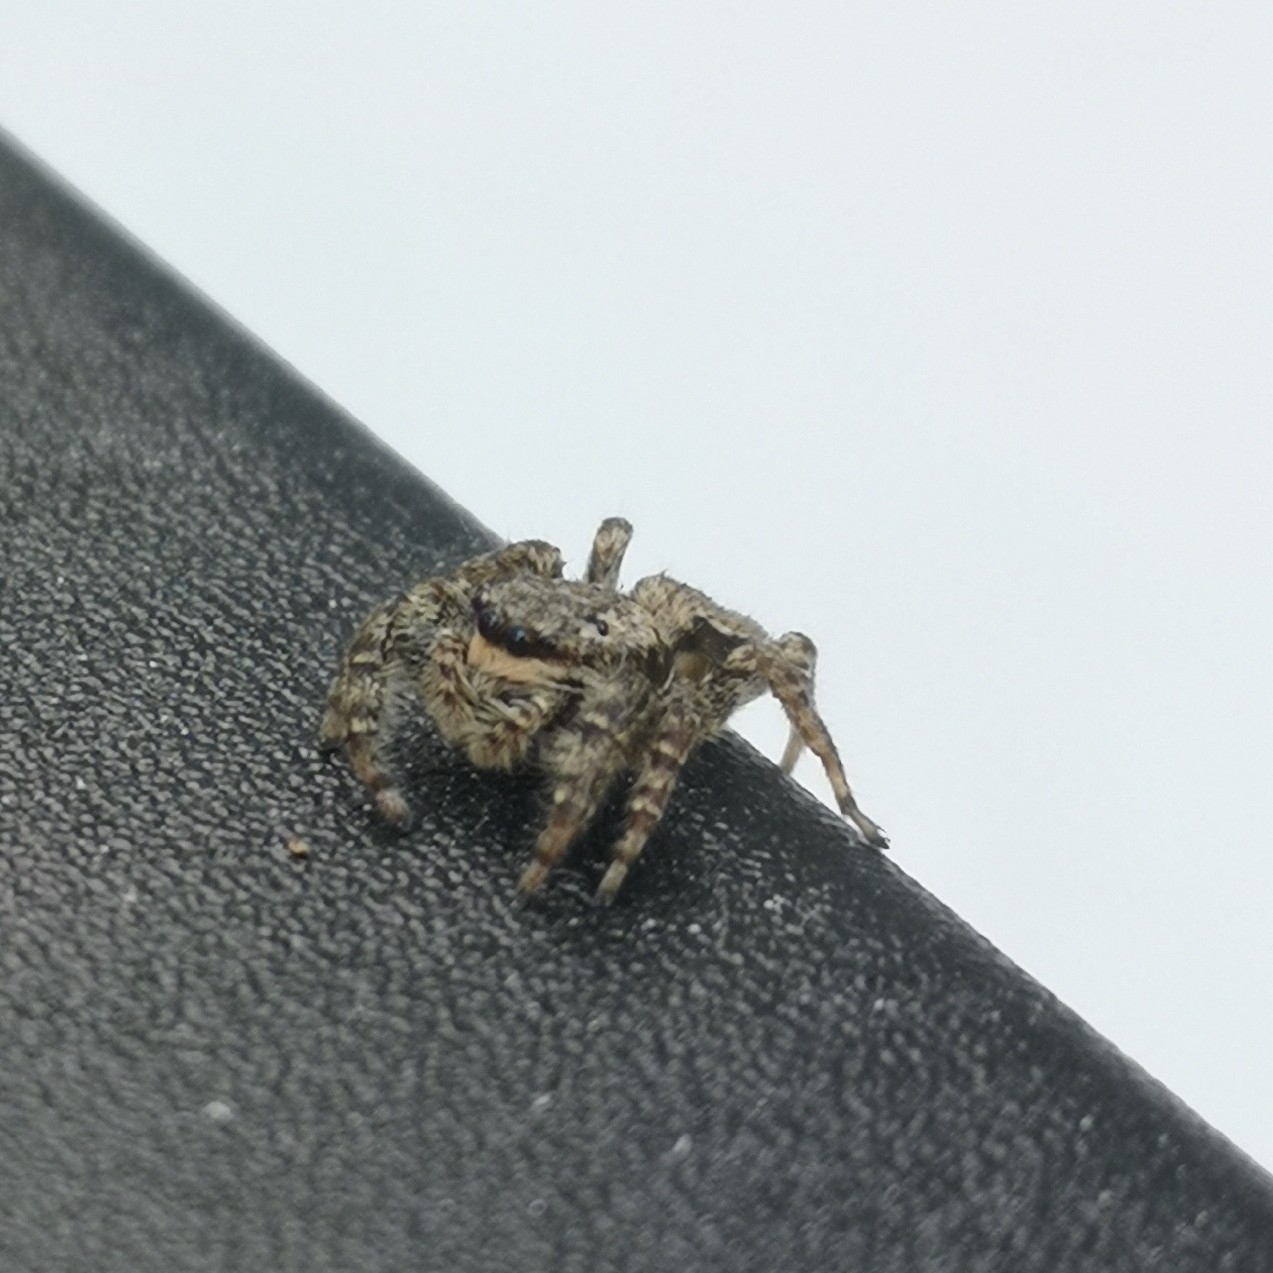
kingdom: Animalia
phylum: Arthropoda
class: Arachnida
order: Araneae
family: Salticidae
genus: Marpissa
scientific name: Marpissa muscosa
